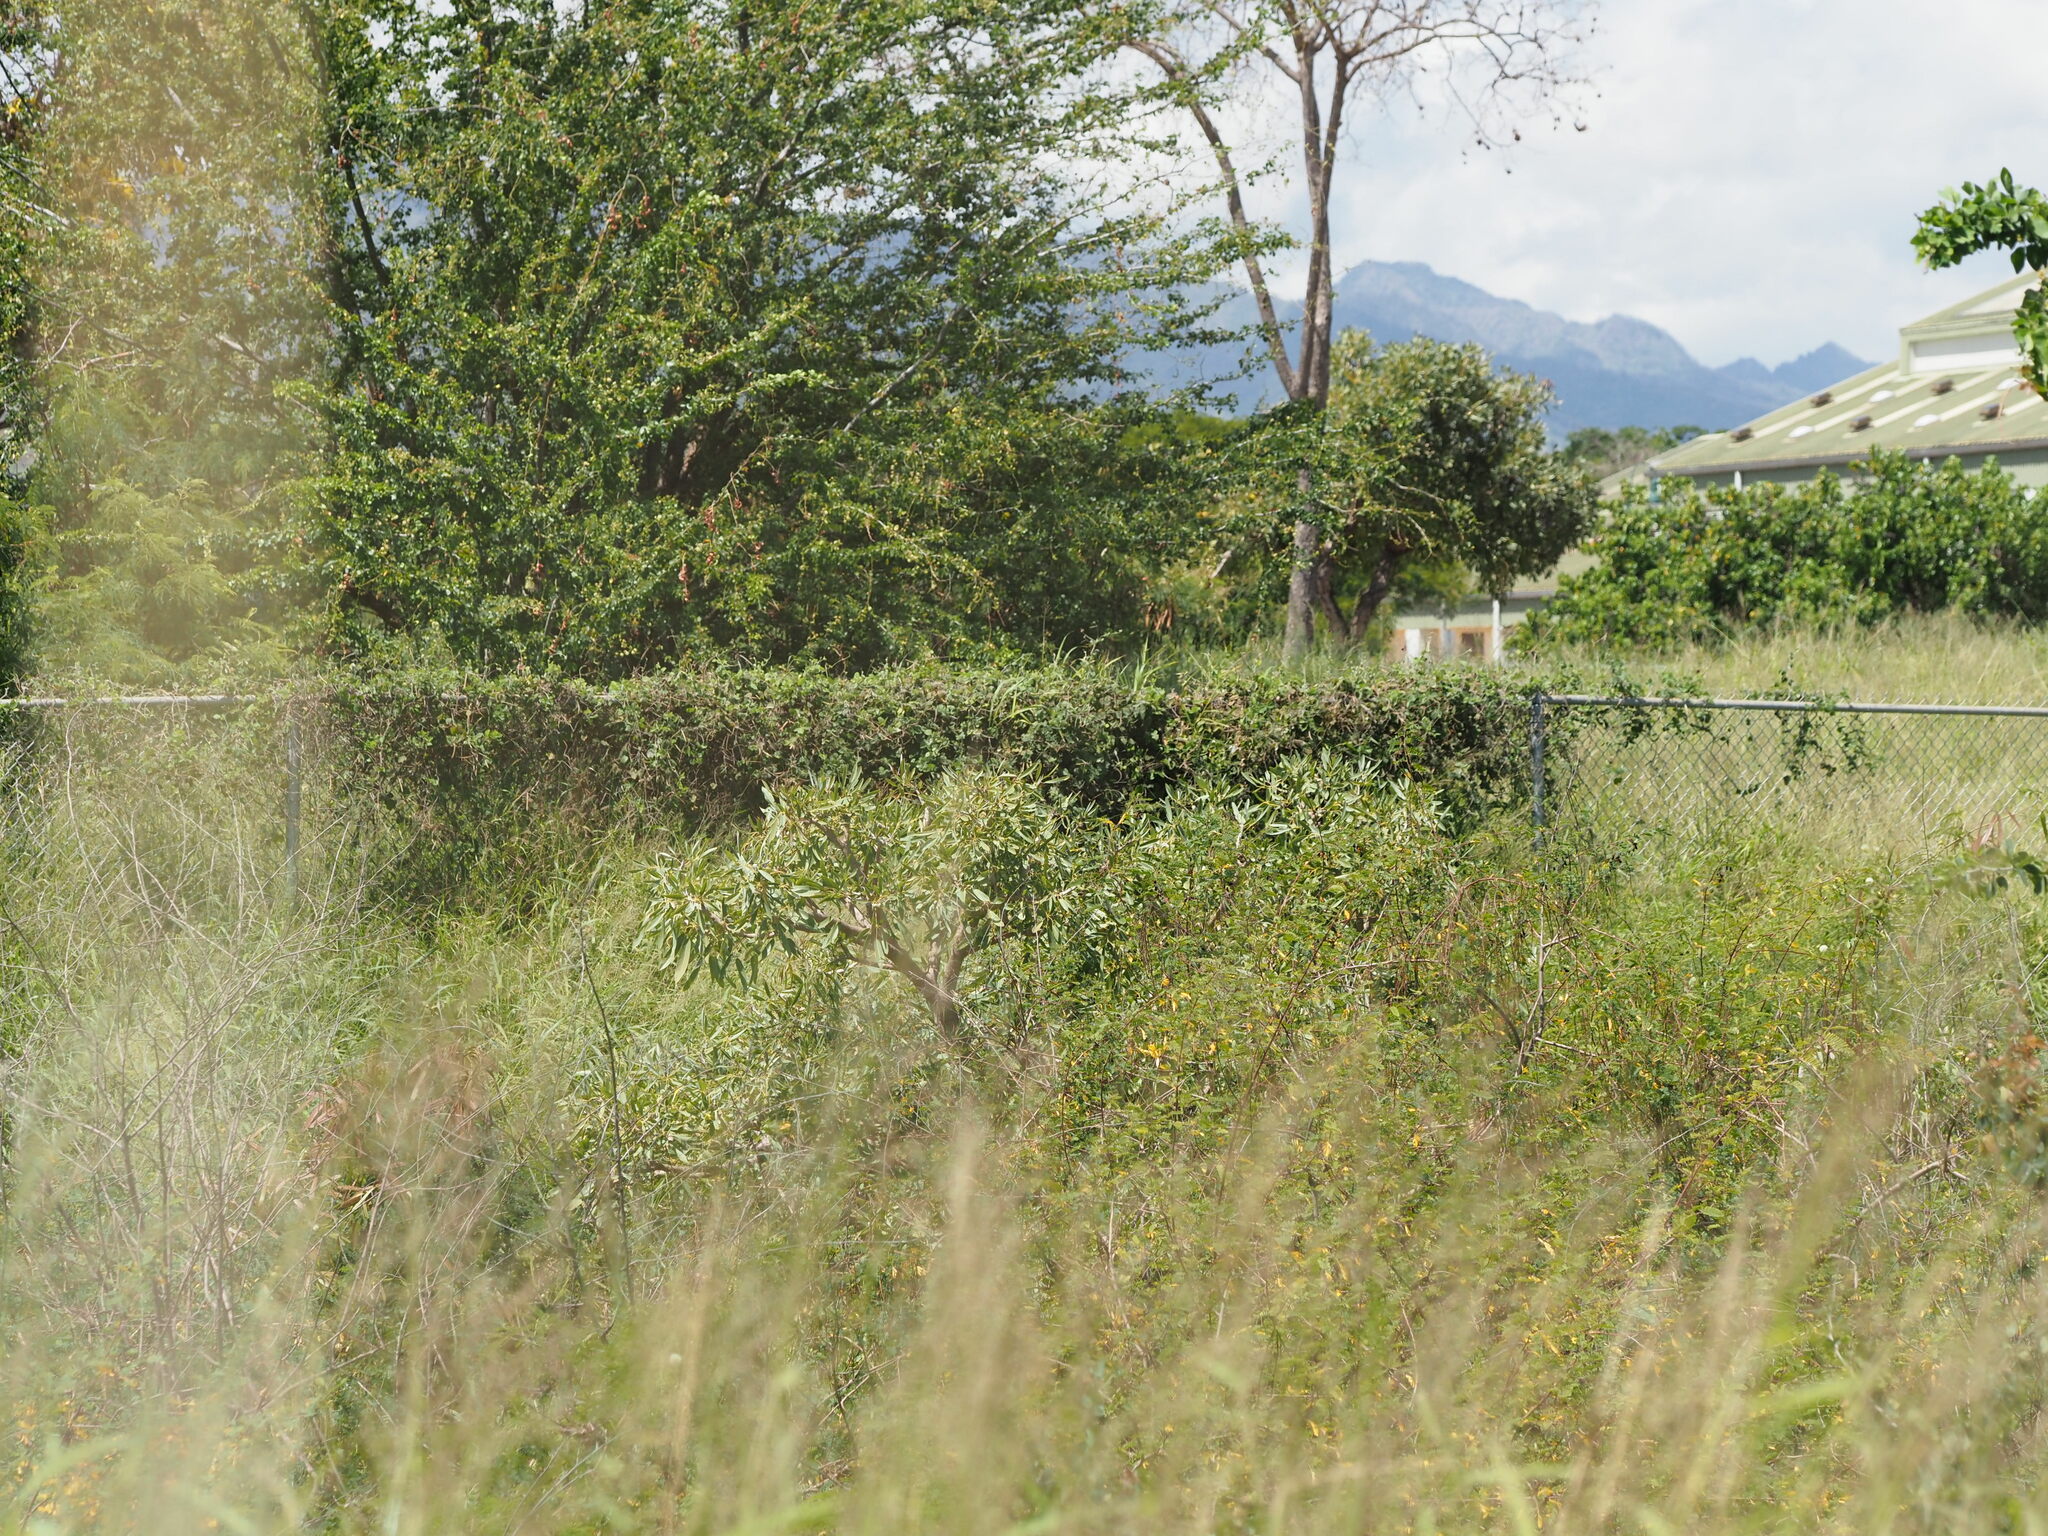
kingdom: Plantae
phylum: Tracheophyta
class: Magnoliopsida
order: Lamiales
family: Bignoniaceae
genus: Tabebuia
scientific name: Tabebuia aurea
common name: Caribbean trumpet-tree
